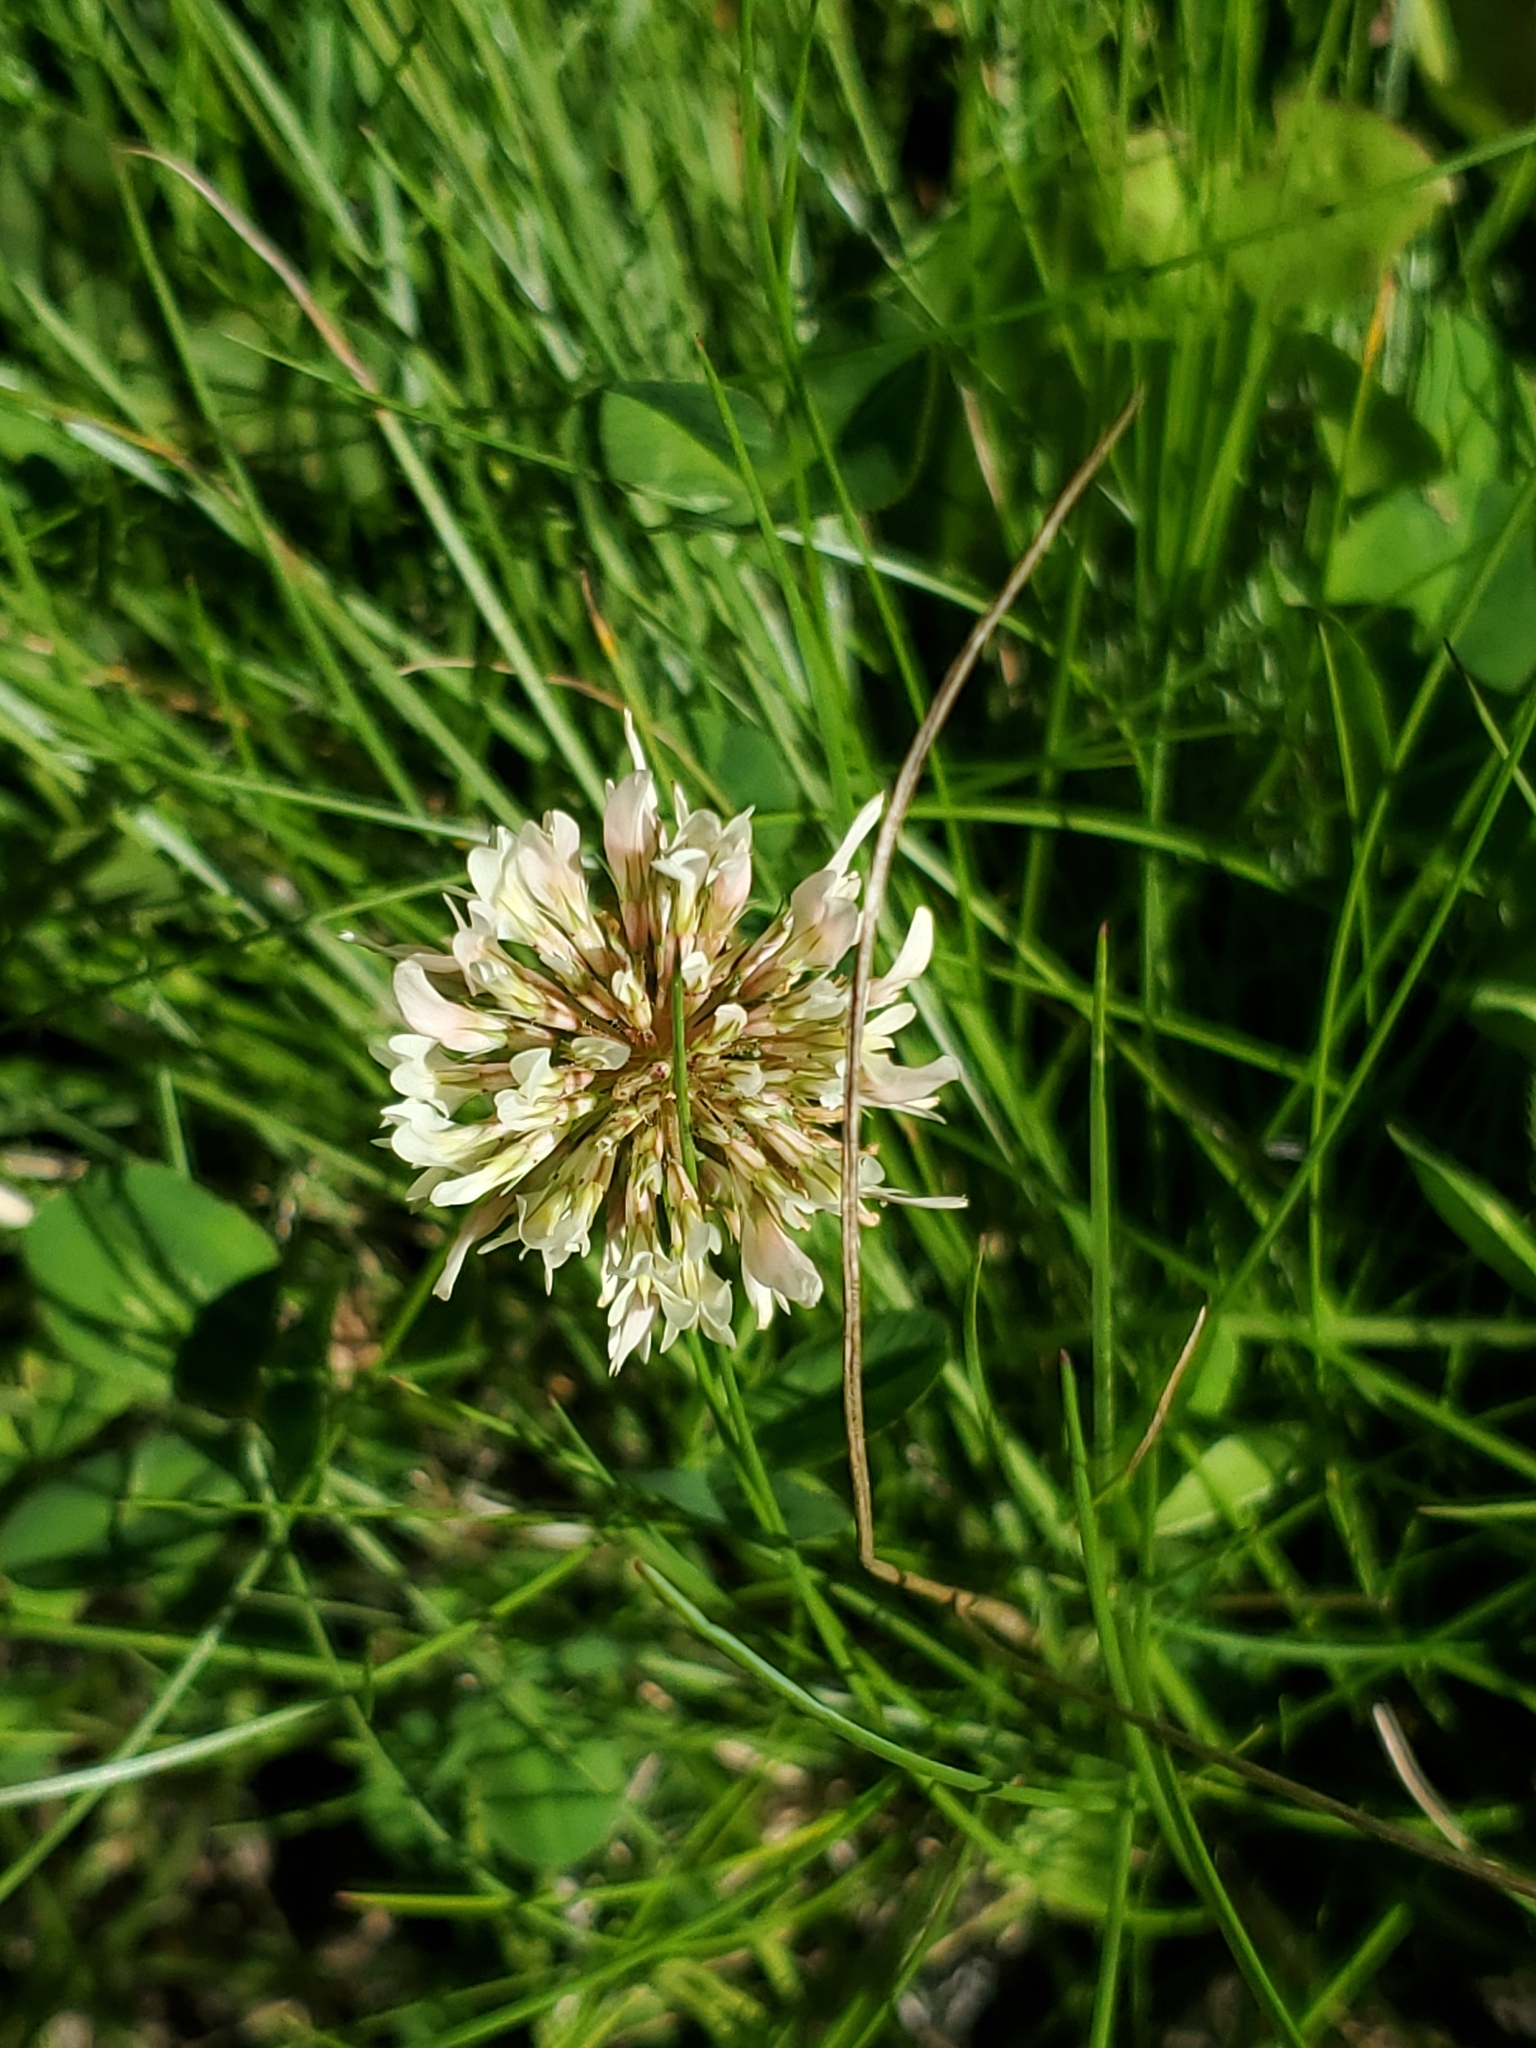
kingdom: Plantae
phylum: Tracheophyta
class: Magnoliopsida
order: Fabales
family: Fabaceae
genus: Trifolium
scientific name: Trifolium repens
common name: White clover
